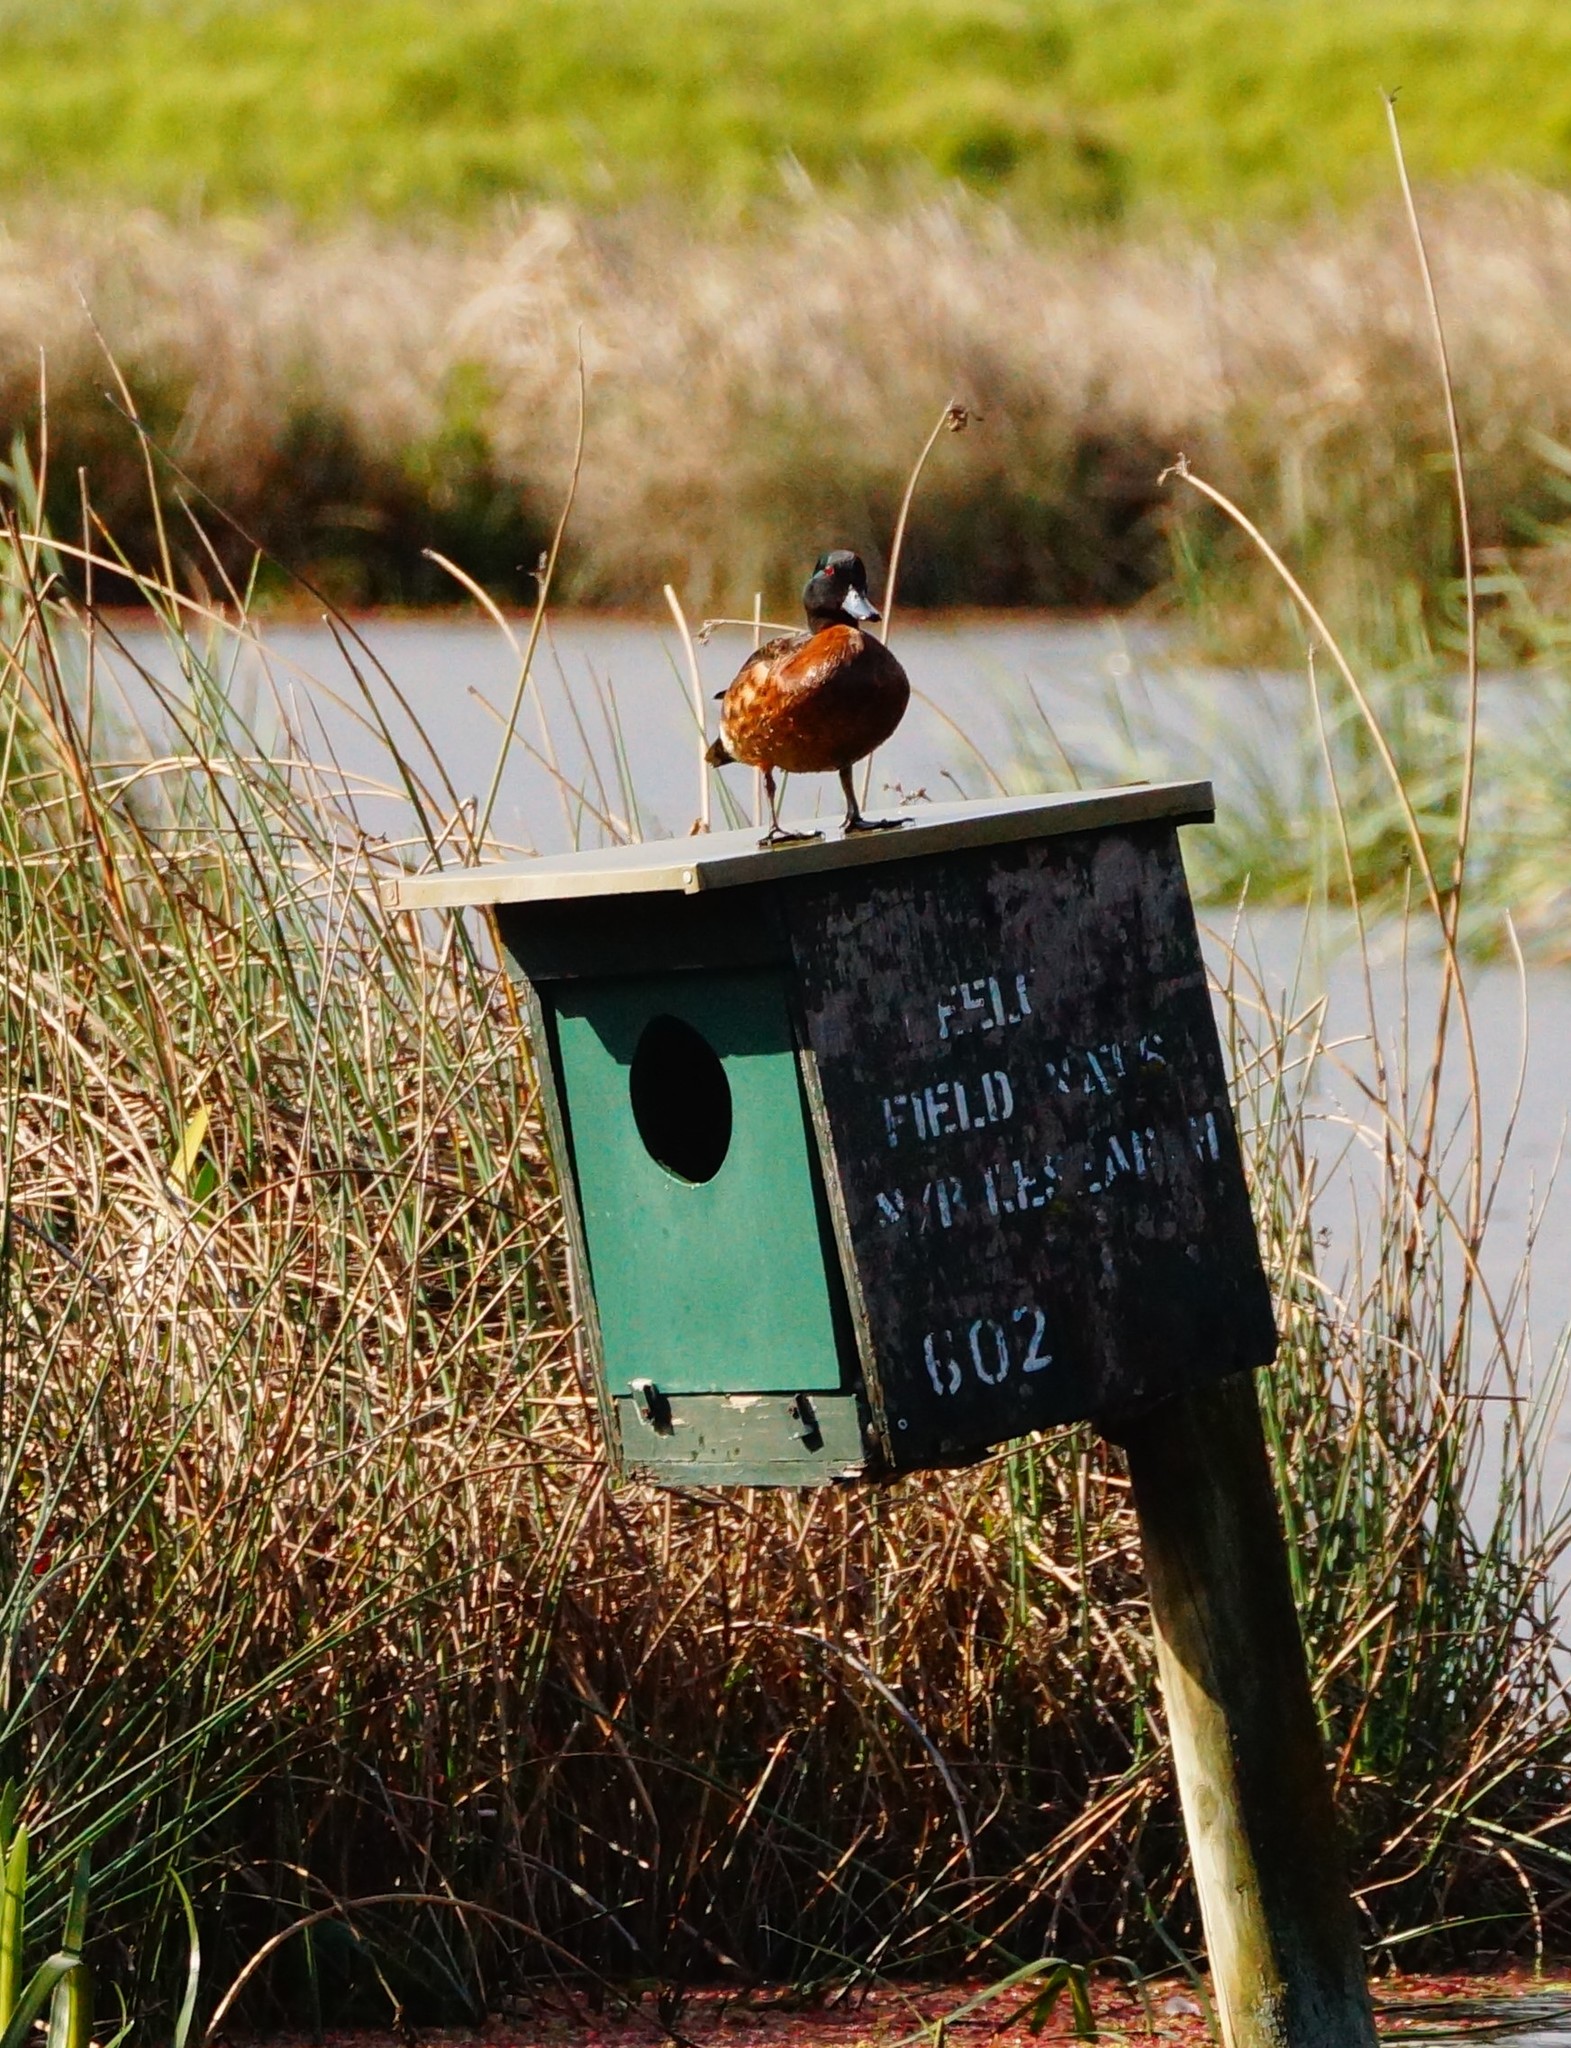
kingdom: Animalia
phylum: Chordata
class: Aves
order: Anseriformes
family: Anatidae
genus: Anas
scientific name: Anas castanea
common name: Chestnut teal
